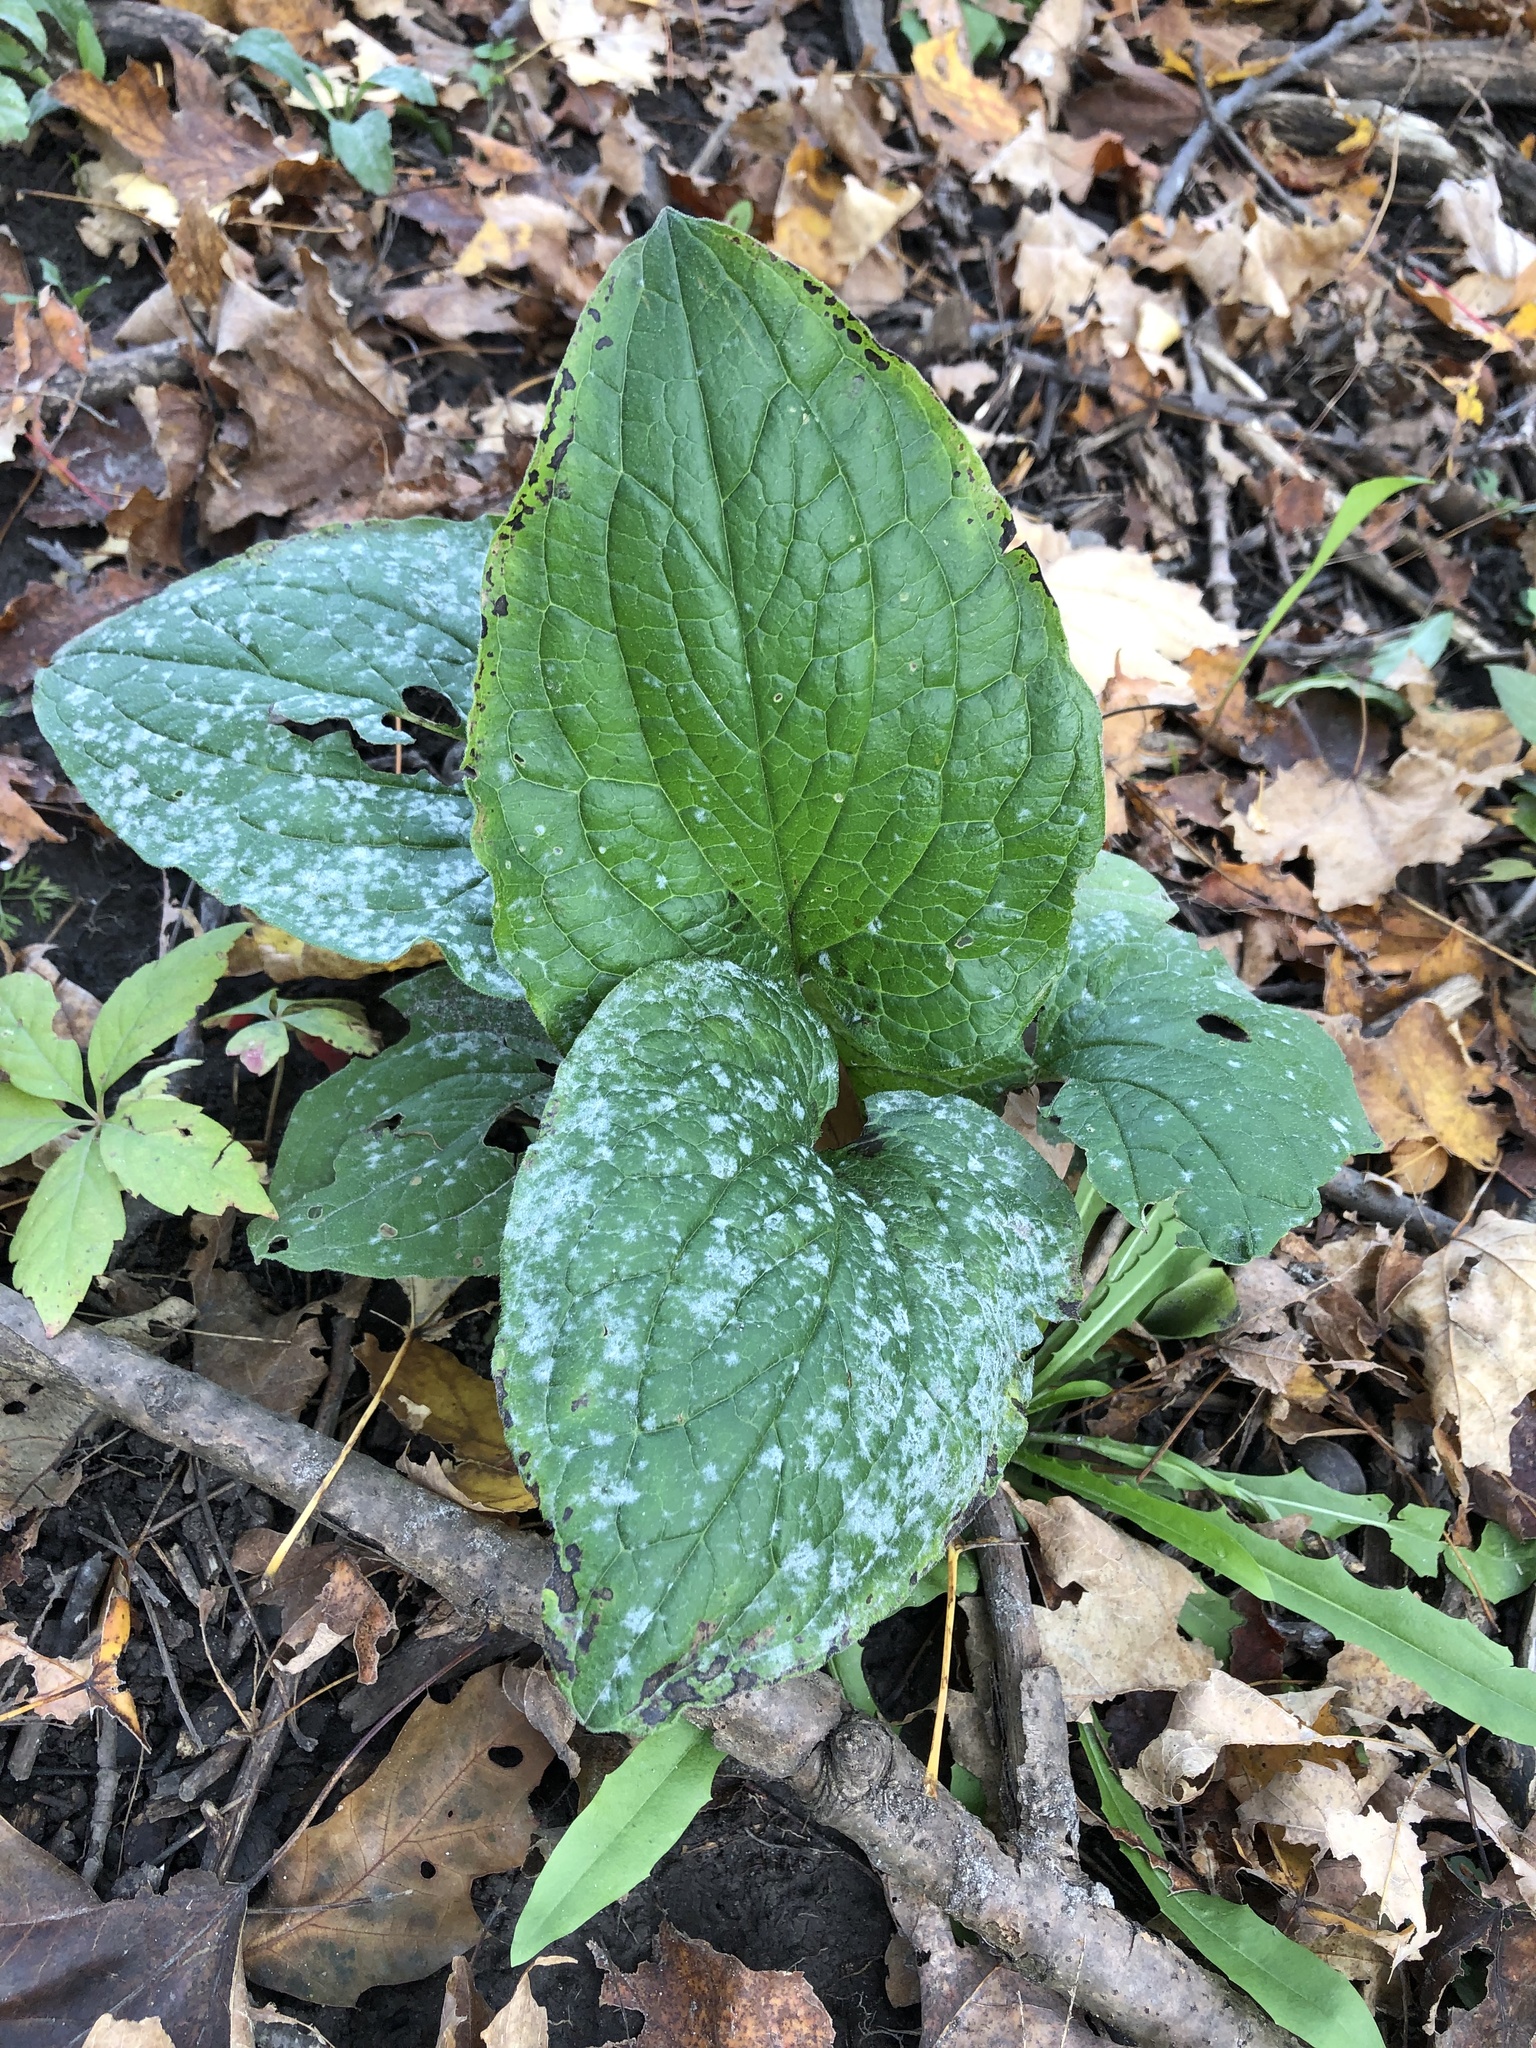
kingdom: Plantae
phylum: Tracheophyta
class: Liliopsida
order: Alismatales
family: Araceae
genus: Symplocarpus
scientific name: Symplocarpus foetidus
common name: Eastern skunk cabbage
